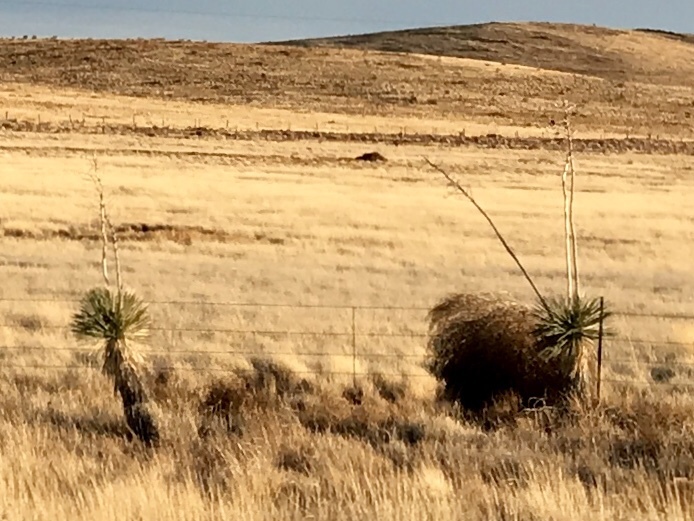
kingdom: Plantae
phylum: Tracheophyta
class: Liliopsida
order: Asparagales
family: Asparagaceae
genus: Yucca
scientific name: Yucca elata
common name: Palmella
